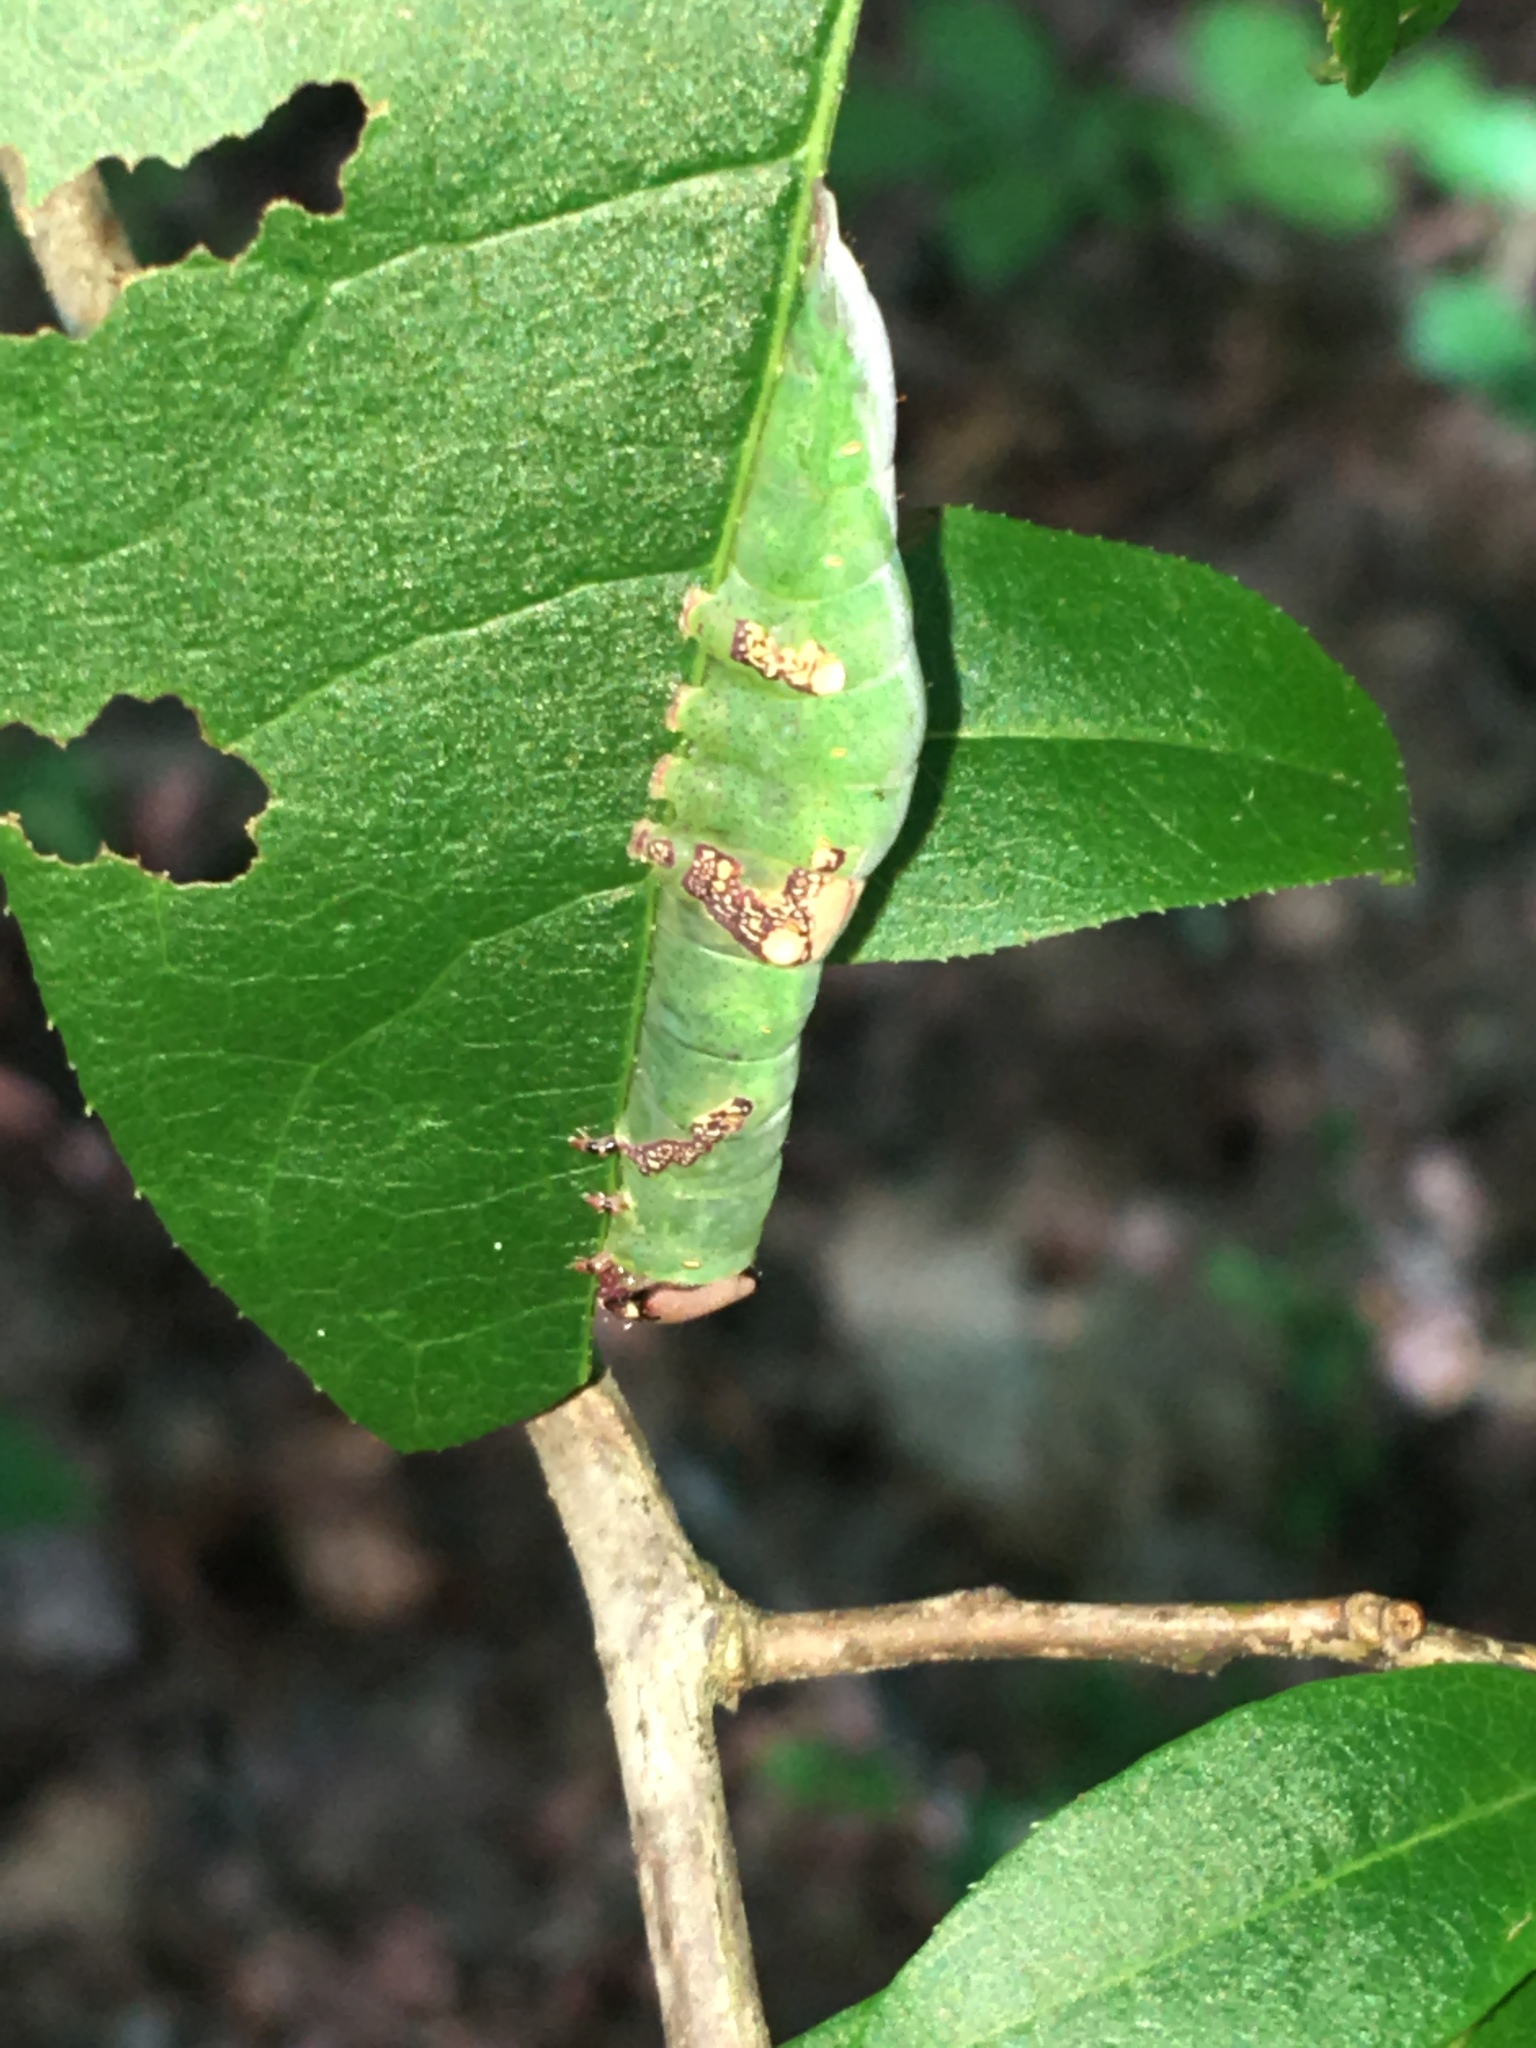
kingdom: Animalia
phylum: Arthropoda
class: Insecta
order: Lepidoptera
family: Notodontidae
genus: Disphragis
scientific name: Disphragis Cecrita biundata
